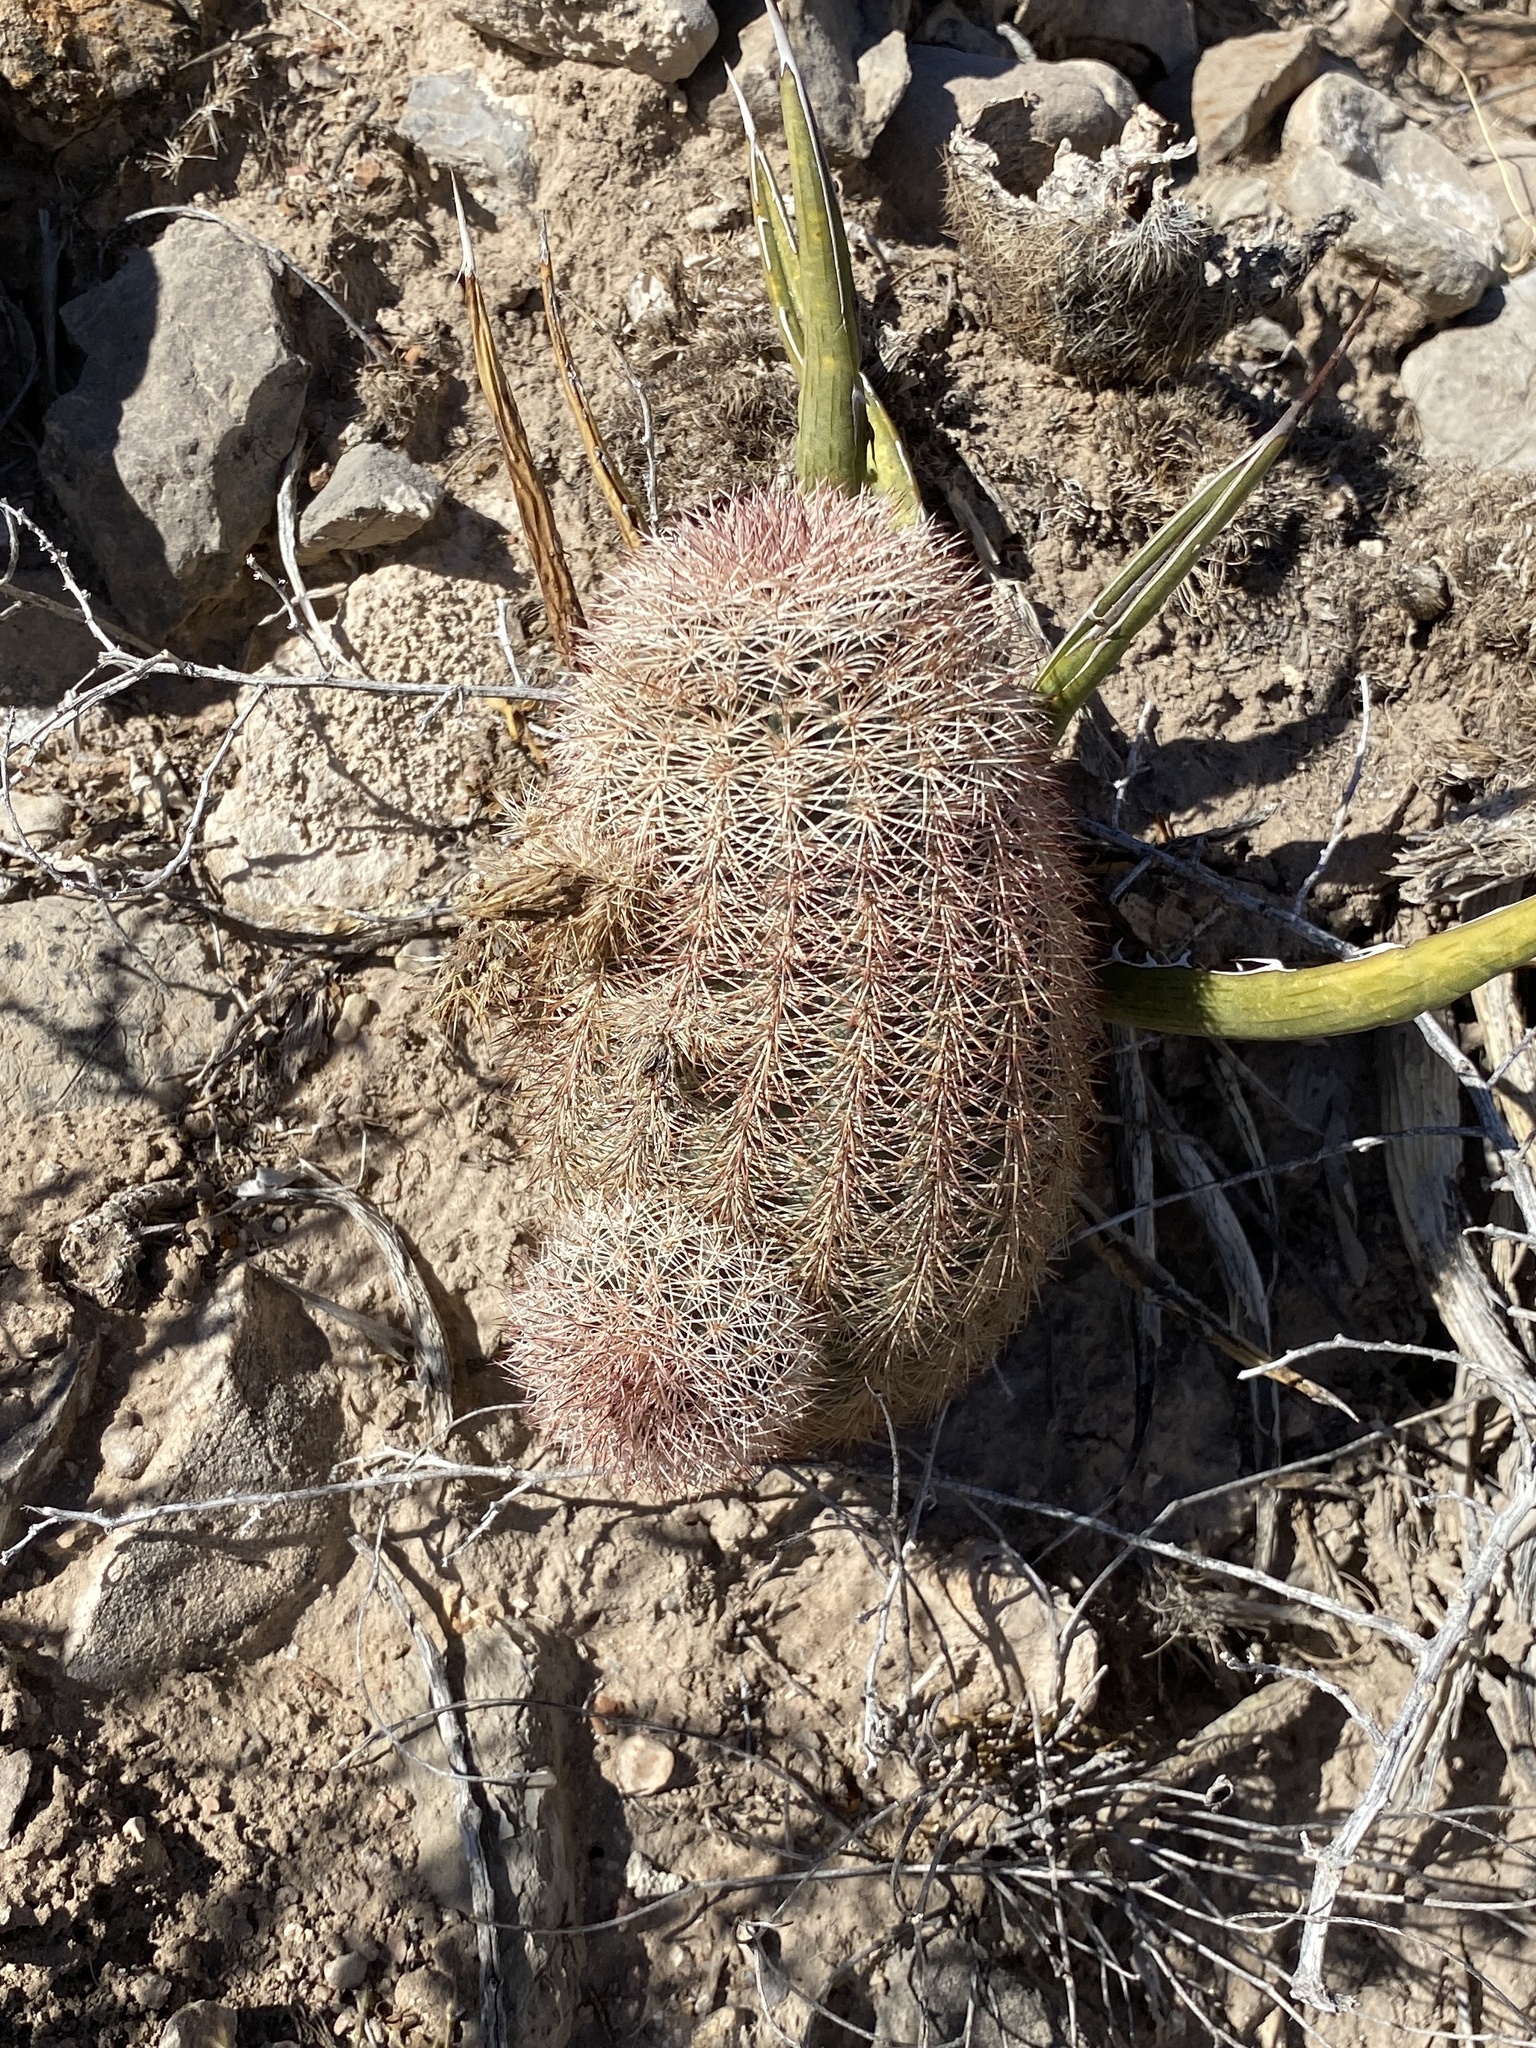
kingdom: Plantae
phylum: Tracheophyta
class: Magnoliopsida
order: Caryophyllales
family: Cactaceae
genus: Echinocereus
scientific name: Echinocereus dasyacanthus
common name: Spiny hedgehog cactus
